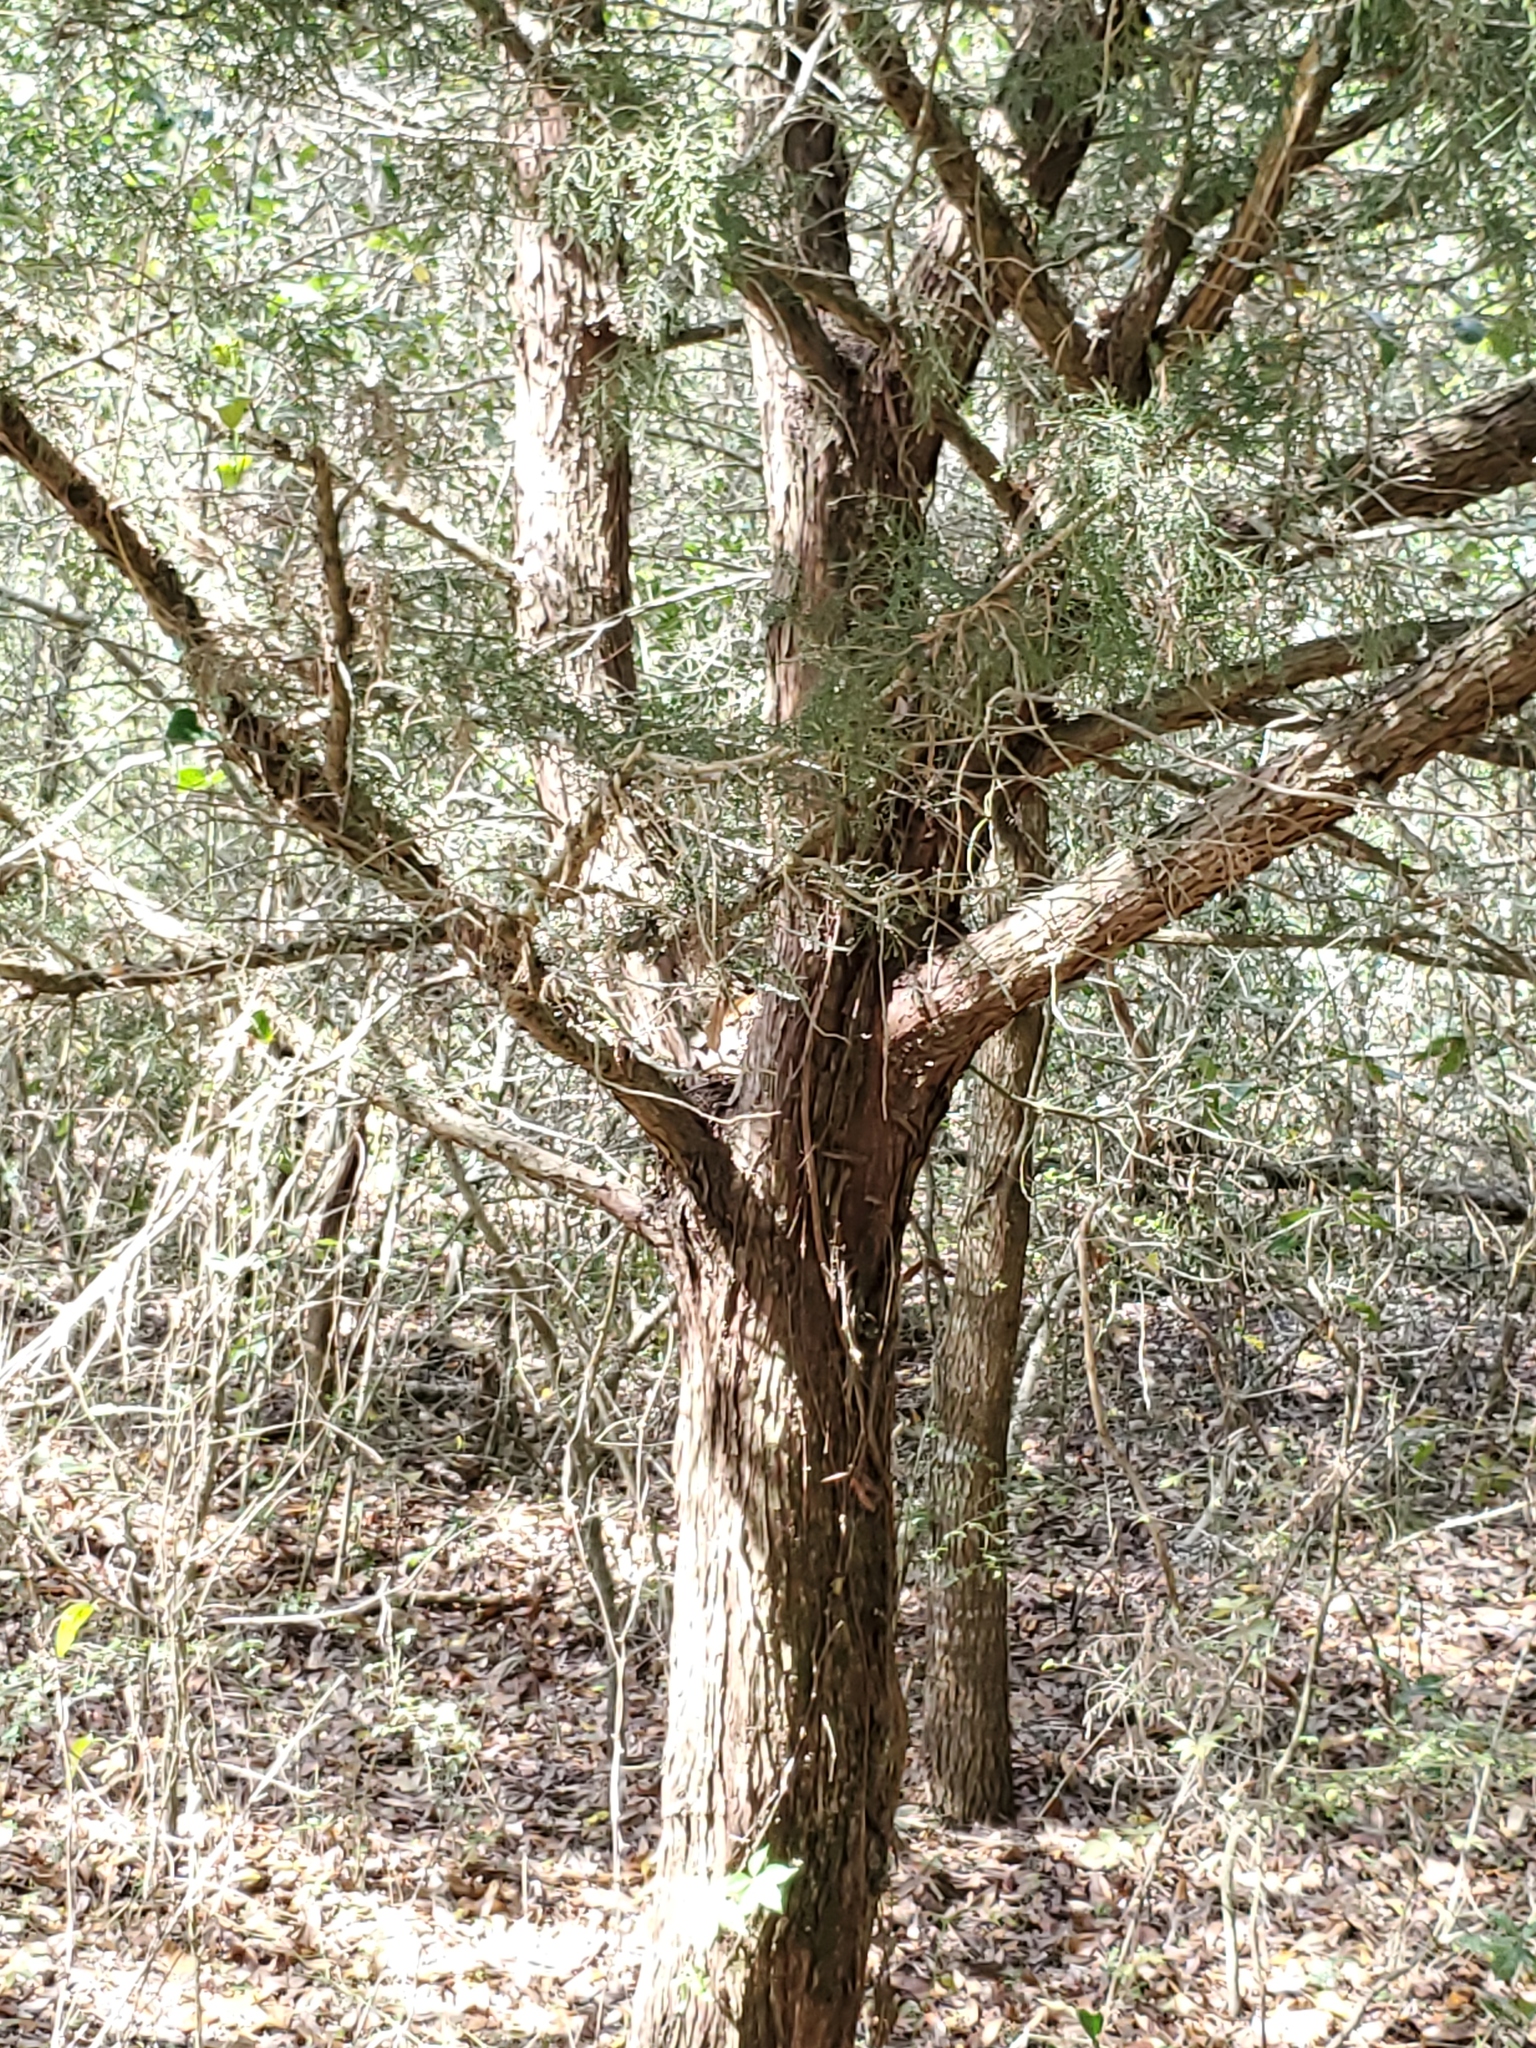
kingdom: Plantae
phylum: Tracheophyta
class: Pinopsida
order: Pinales
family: Cupressaceae
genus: Juniperus
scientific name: Juniperus virginiana
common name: Red juniper
